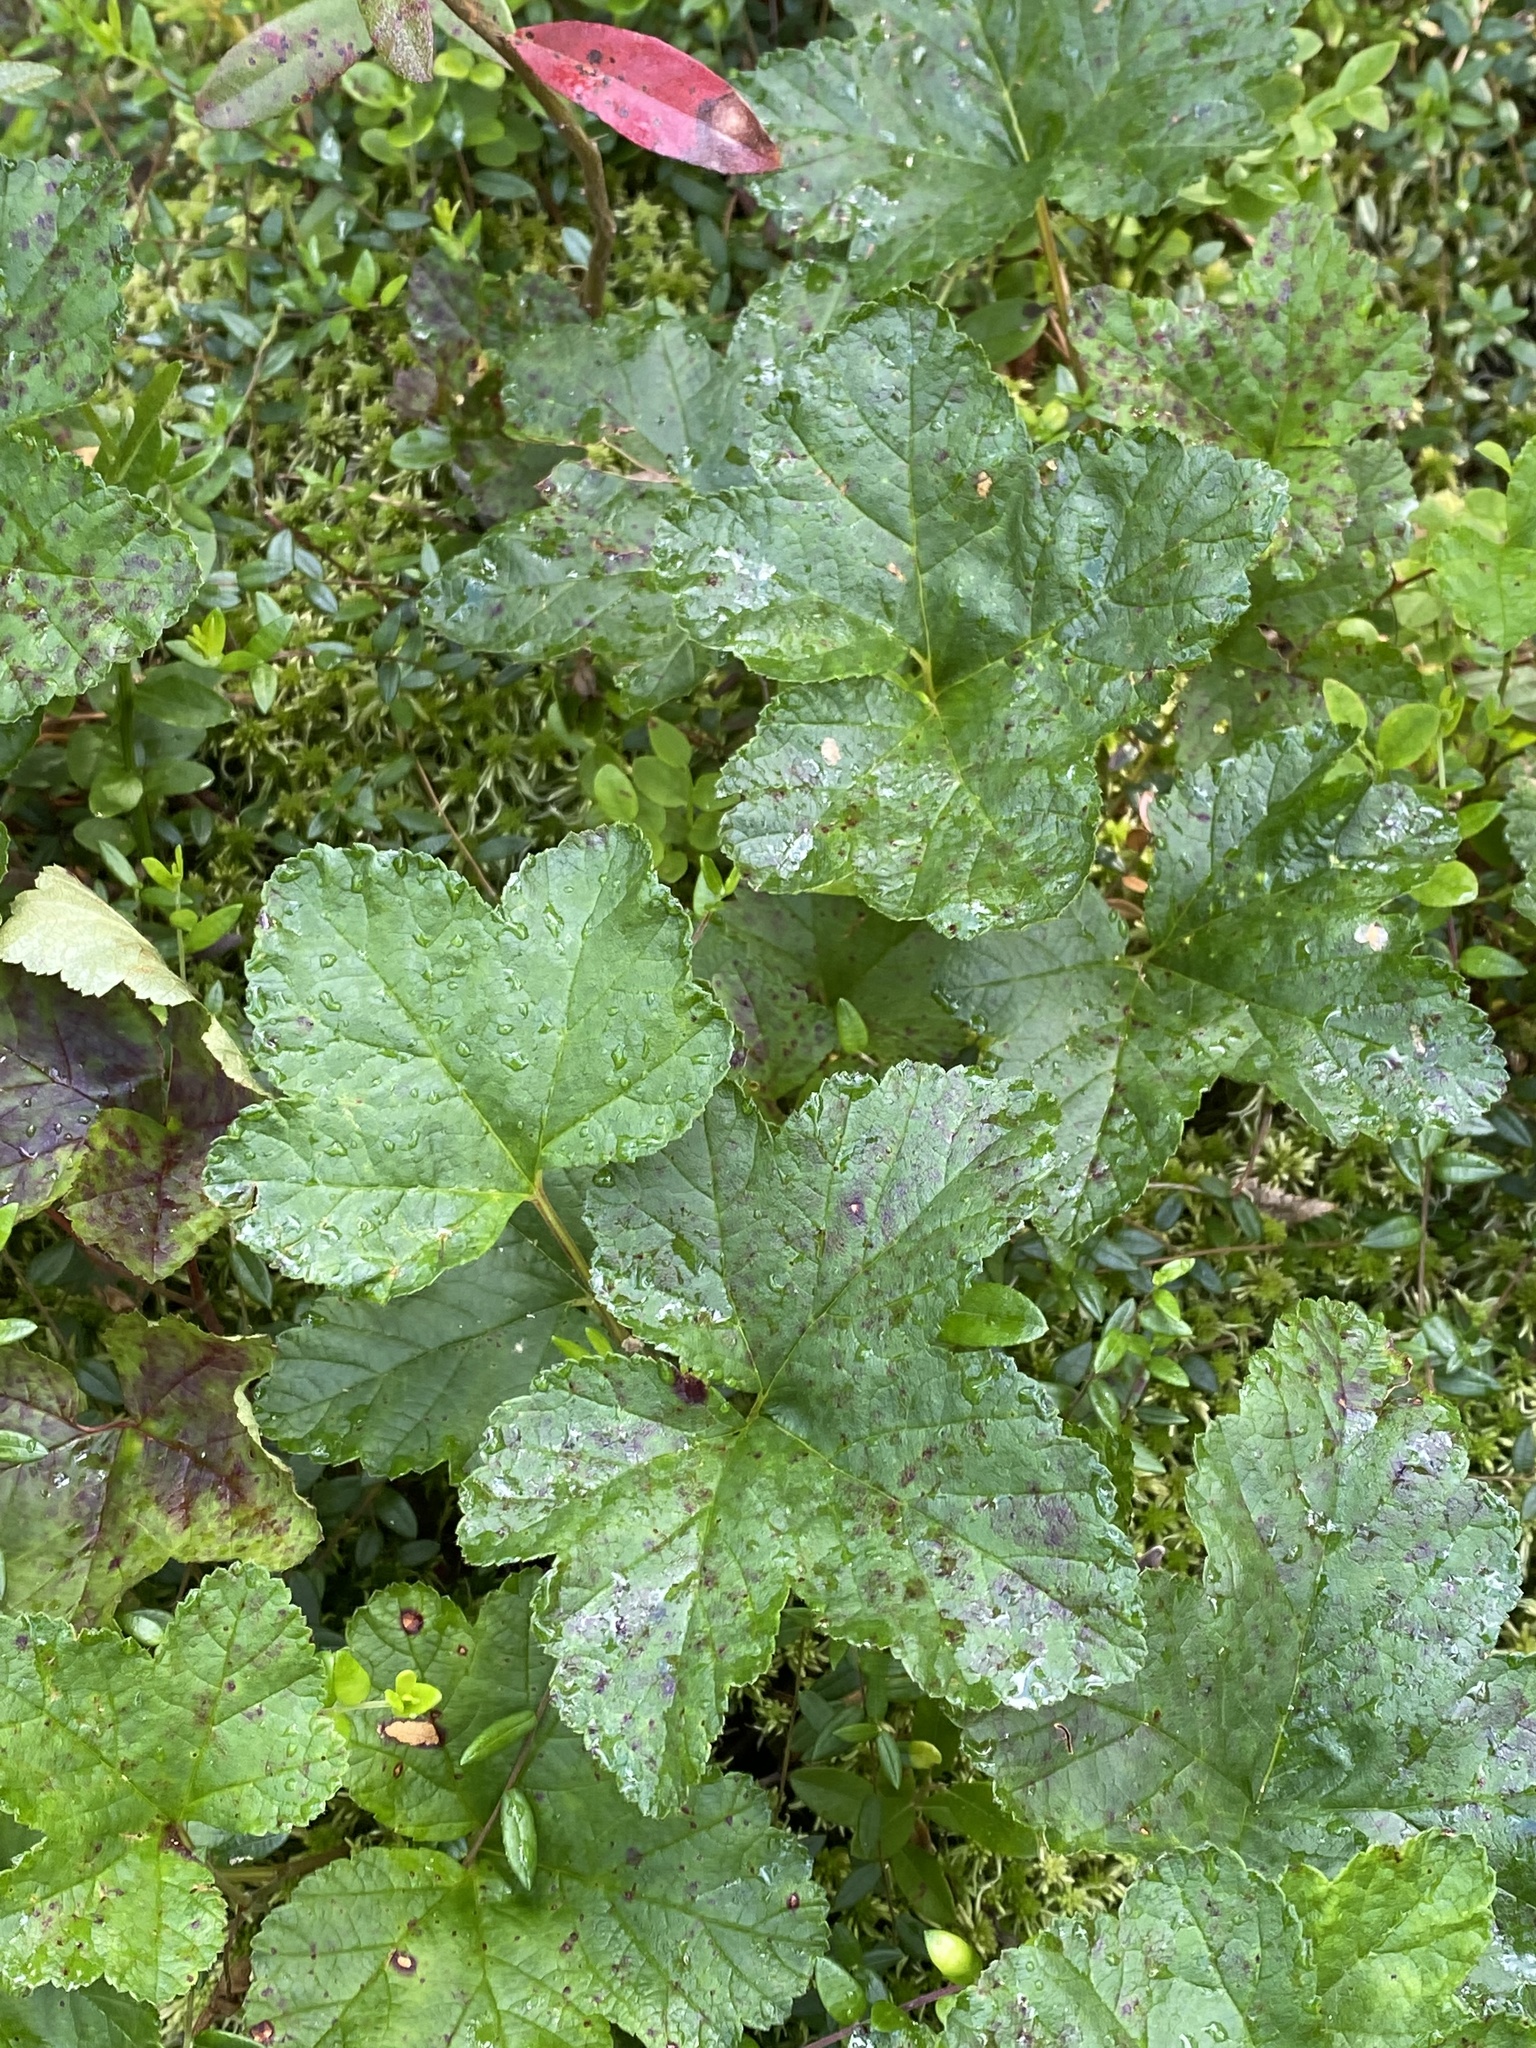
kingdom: Plantae
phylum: Tracheophyta
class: Magnoliopsida
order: Rosales
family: Rosaceae
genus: Rubus
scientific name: Rubus chamaemorus
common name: Cloudberry
